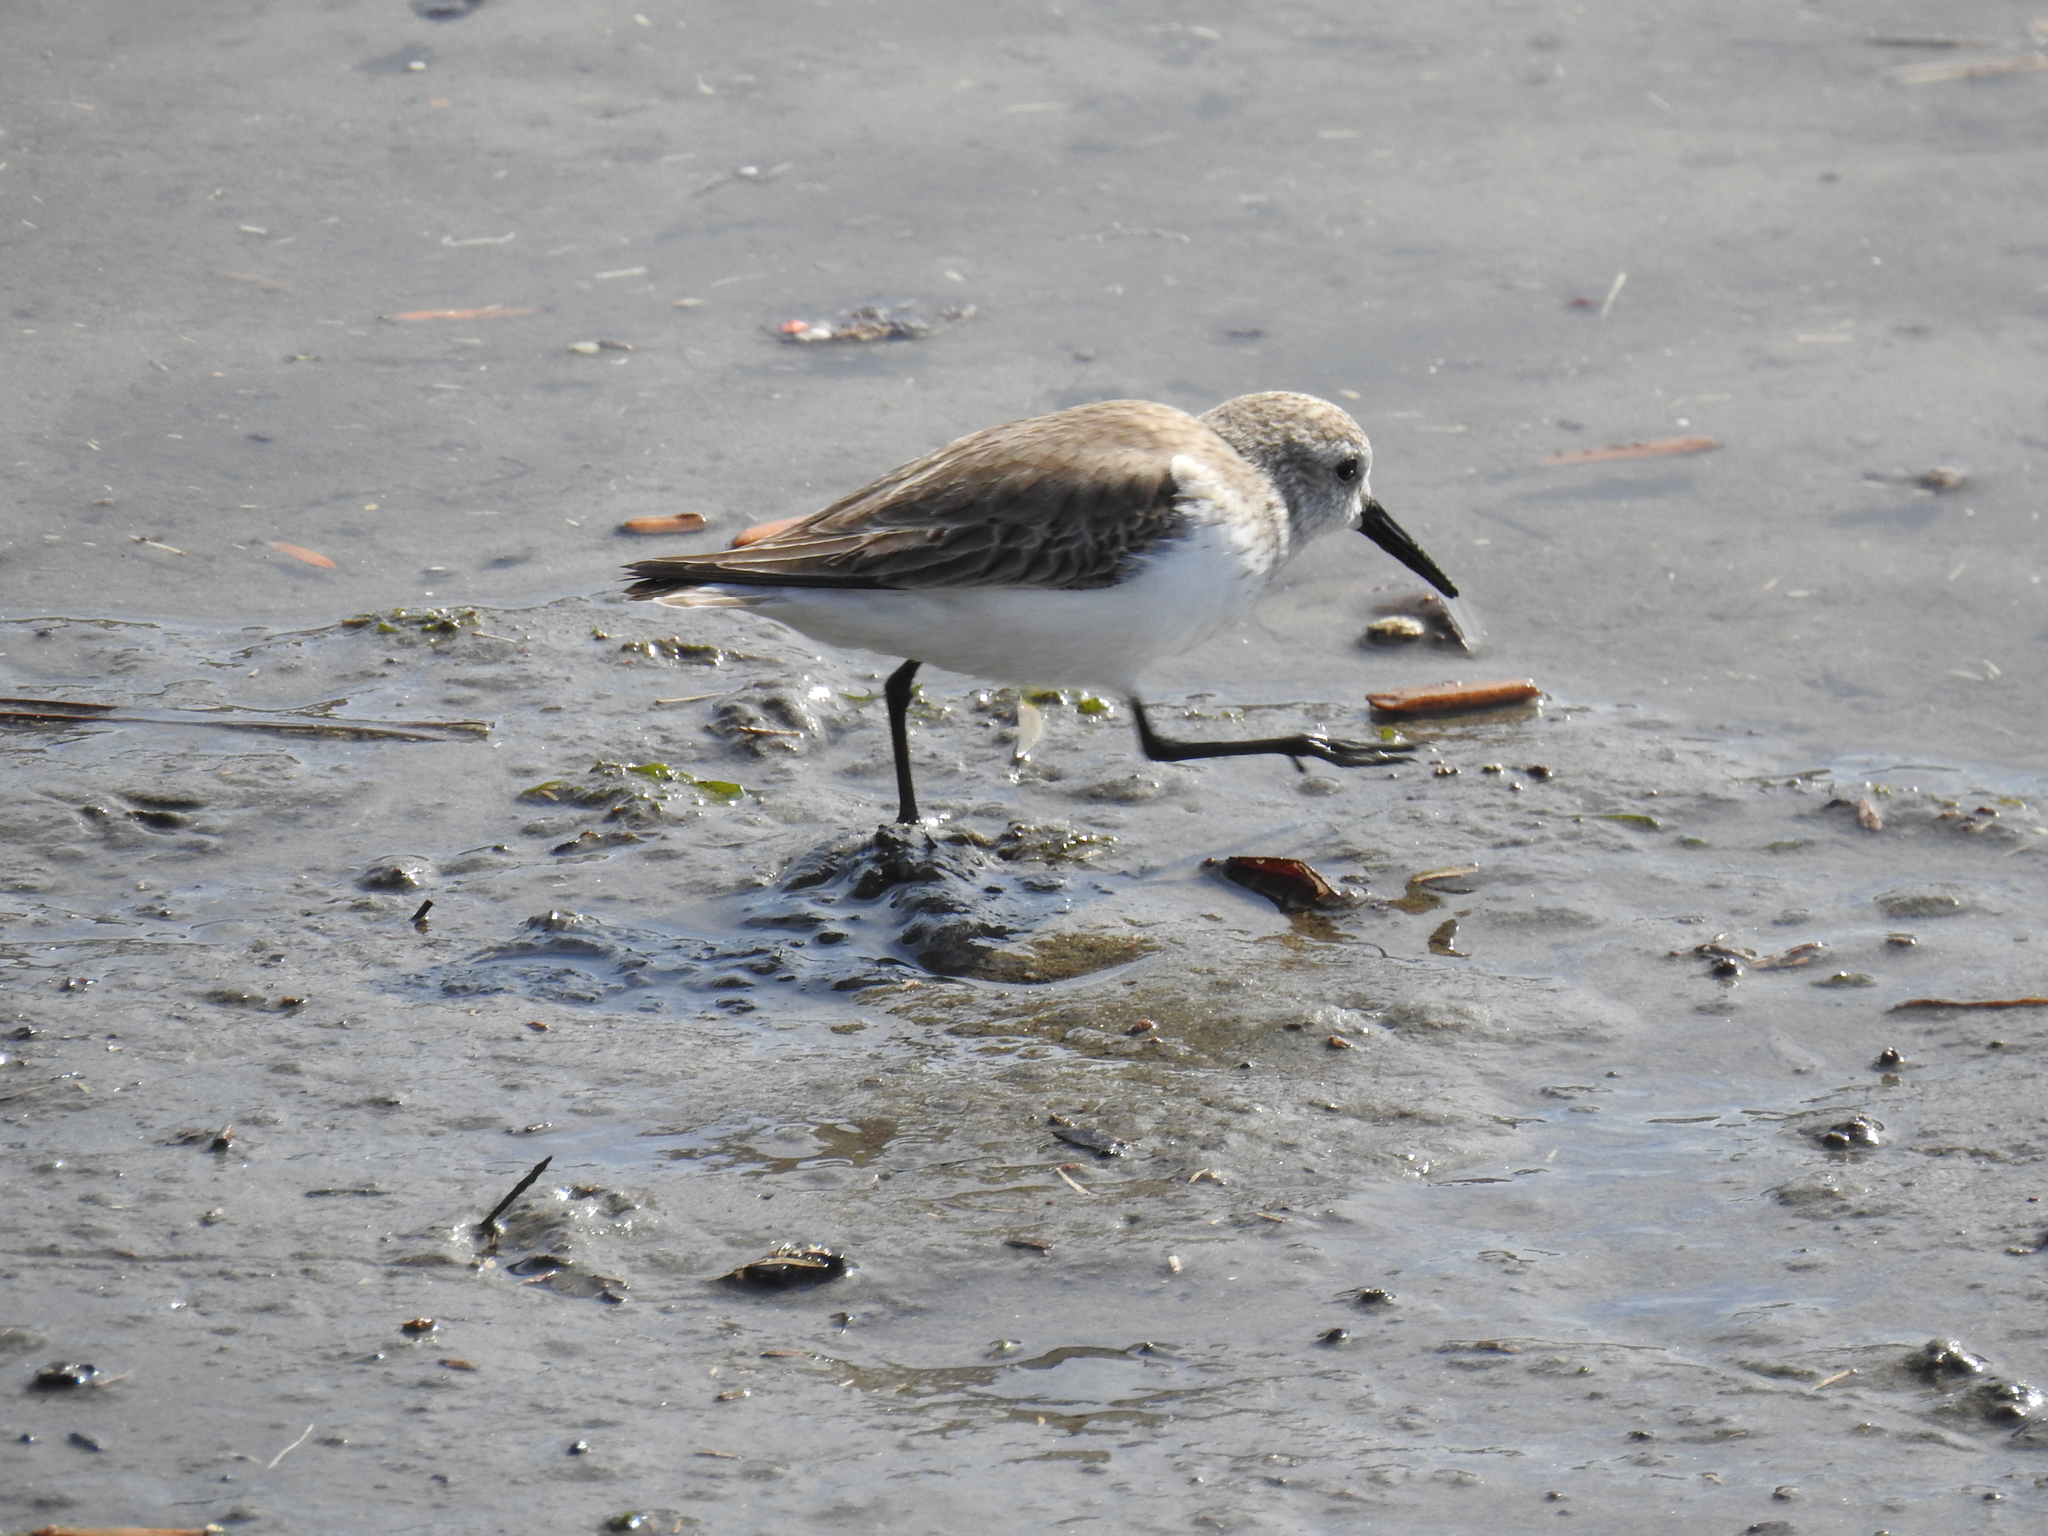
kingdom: Animalia
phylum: Chordata
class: Aves
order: Charadriiformes
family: Scolopacidae
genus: Calidris
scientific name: Calidris mauri
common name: Western sandpiper
